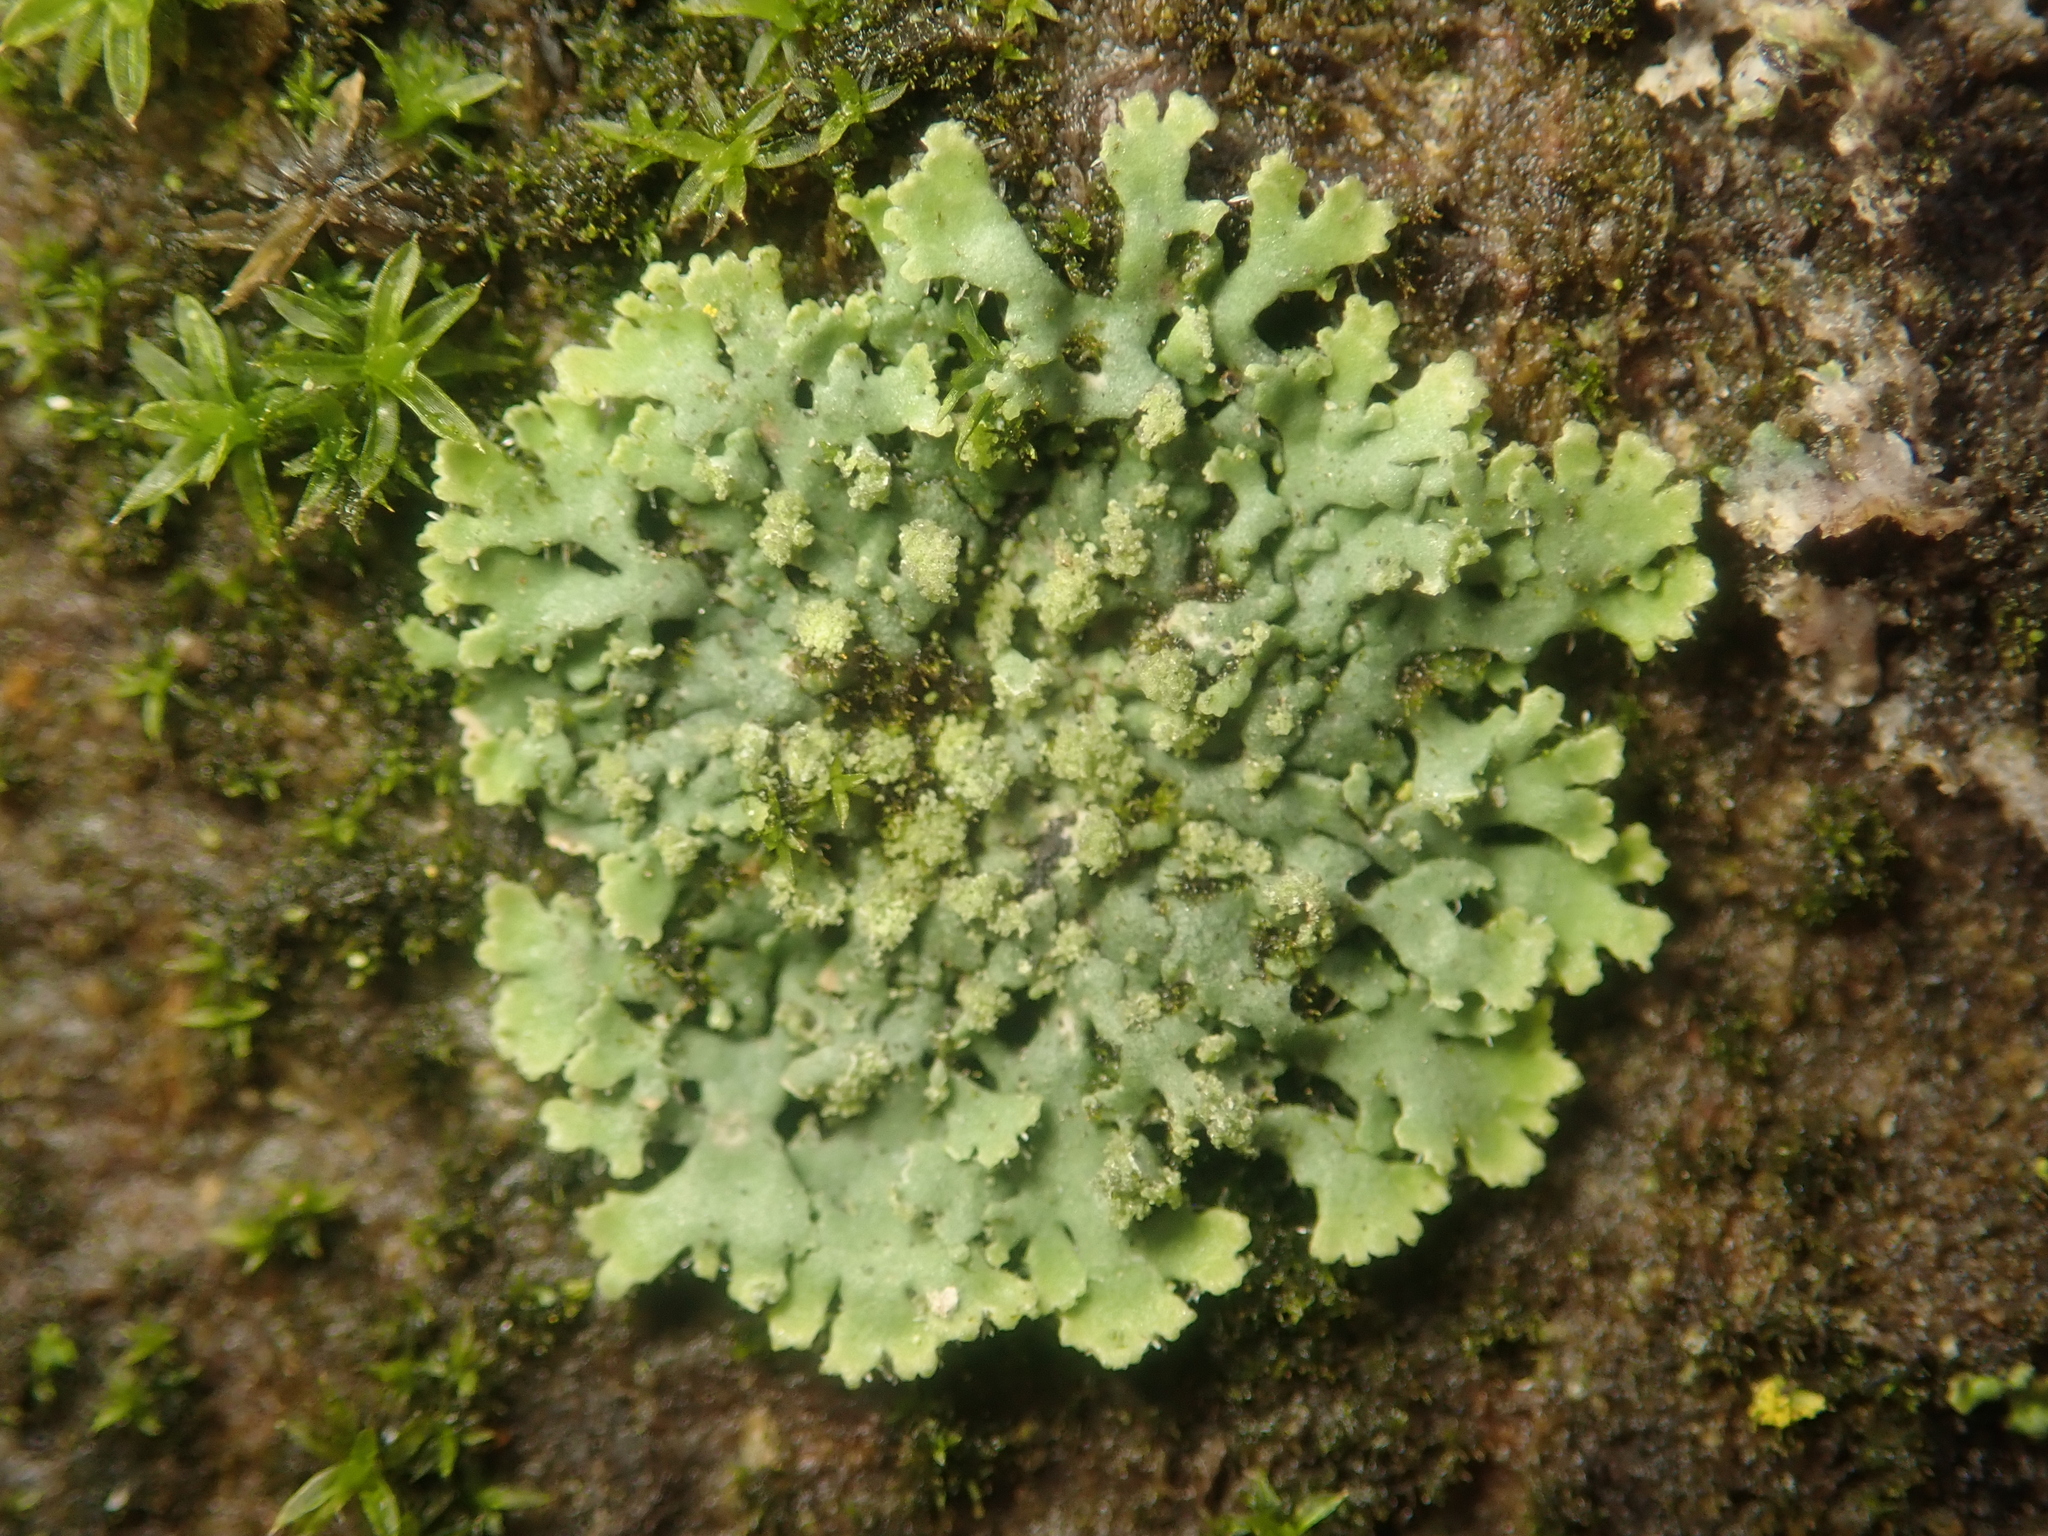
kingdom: Fungi
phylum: Ascomycota
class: Lecanoromycetes
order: Caliciales
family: Physciaceae
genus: Phaeophyscia
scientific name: Phaeophyscia orbicularis
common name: Mealy shadow lichen
